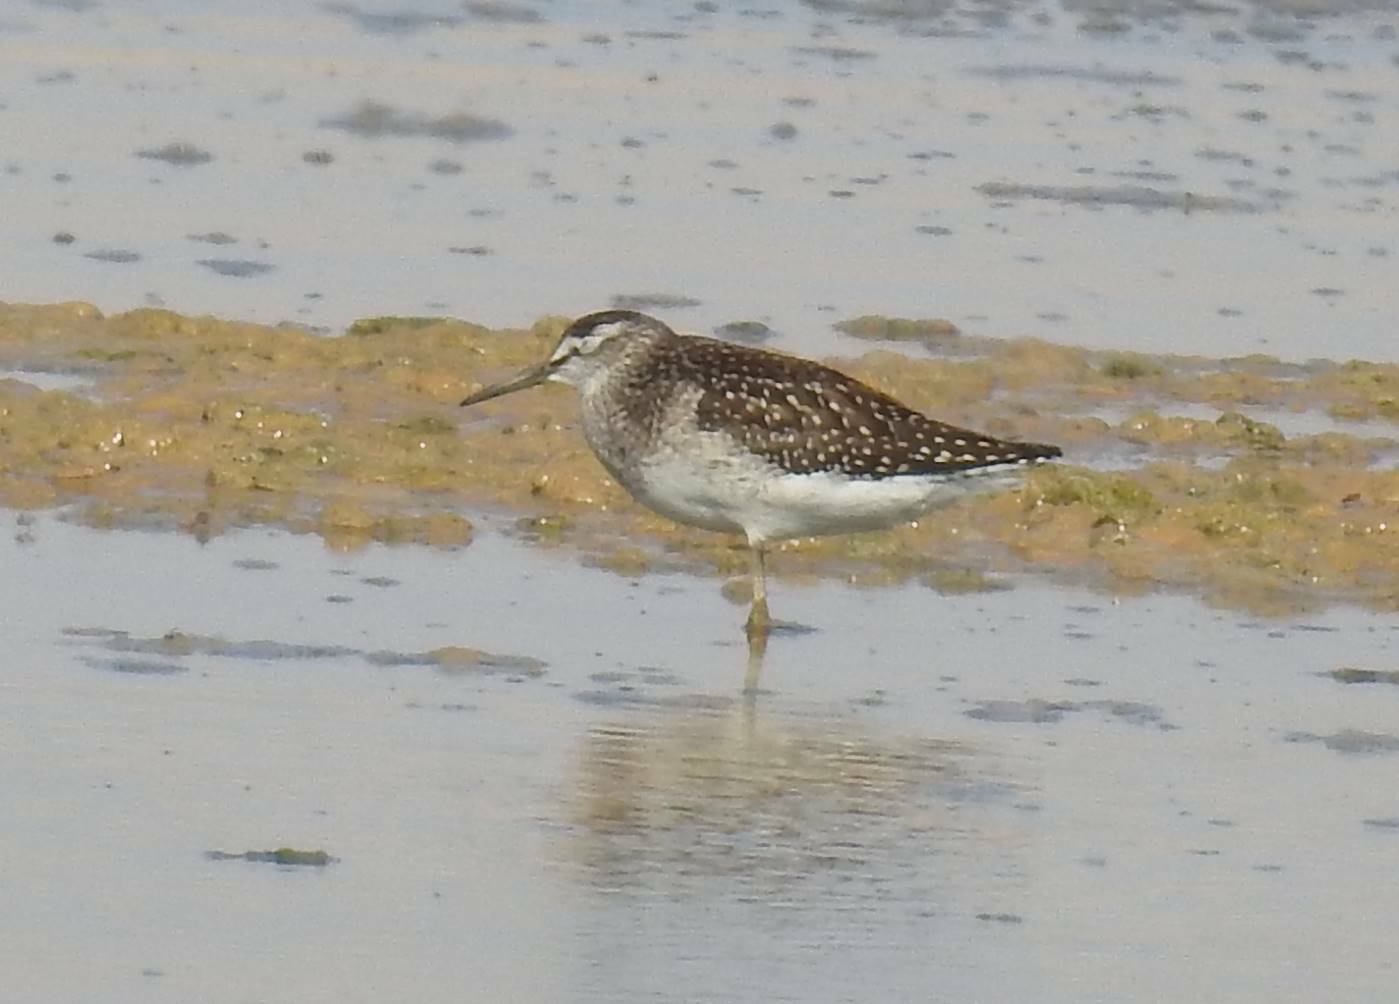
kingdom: Animalia
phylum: Chordata
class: Aves
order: Charadriiformes
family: Scolopacidae
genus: Tringa
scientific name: Tringa glareola
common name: Wood sandpiper
